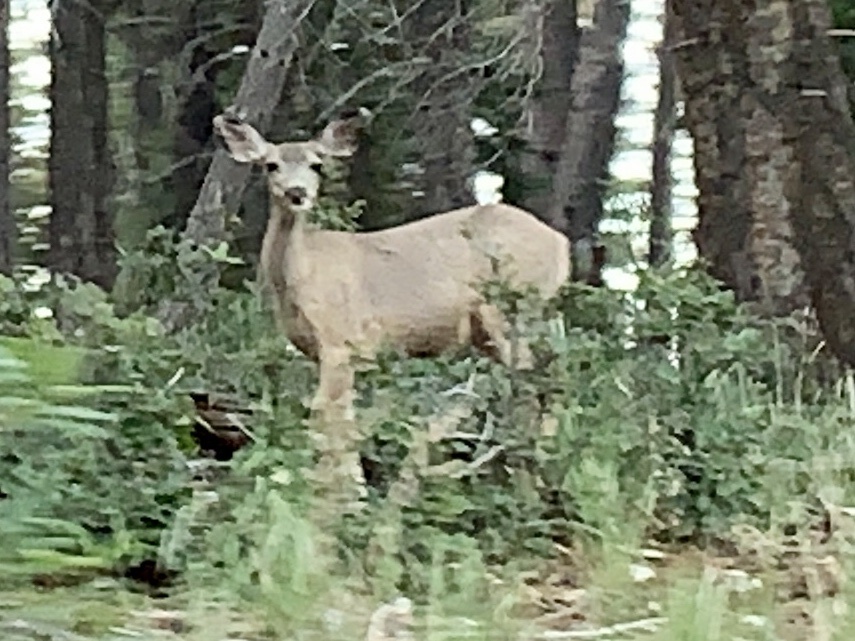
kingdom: Animalia
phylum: Chordata
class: Mammalia
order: Artiodactyla
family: Cervidae
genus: Odocoileus
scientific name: Odocoileus hemionus
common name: Mule deer
